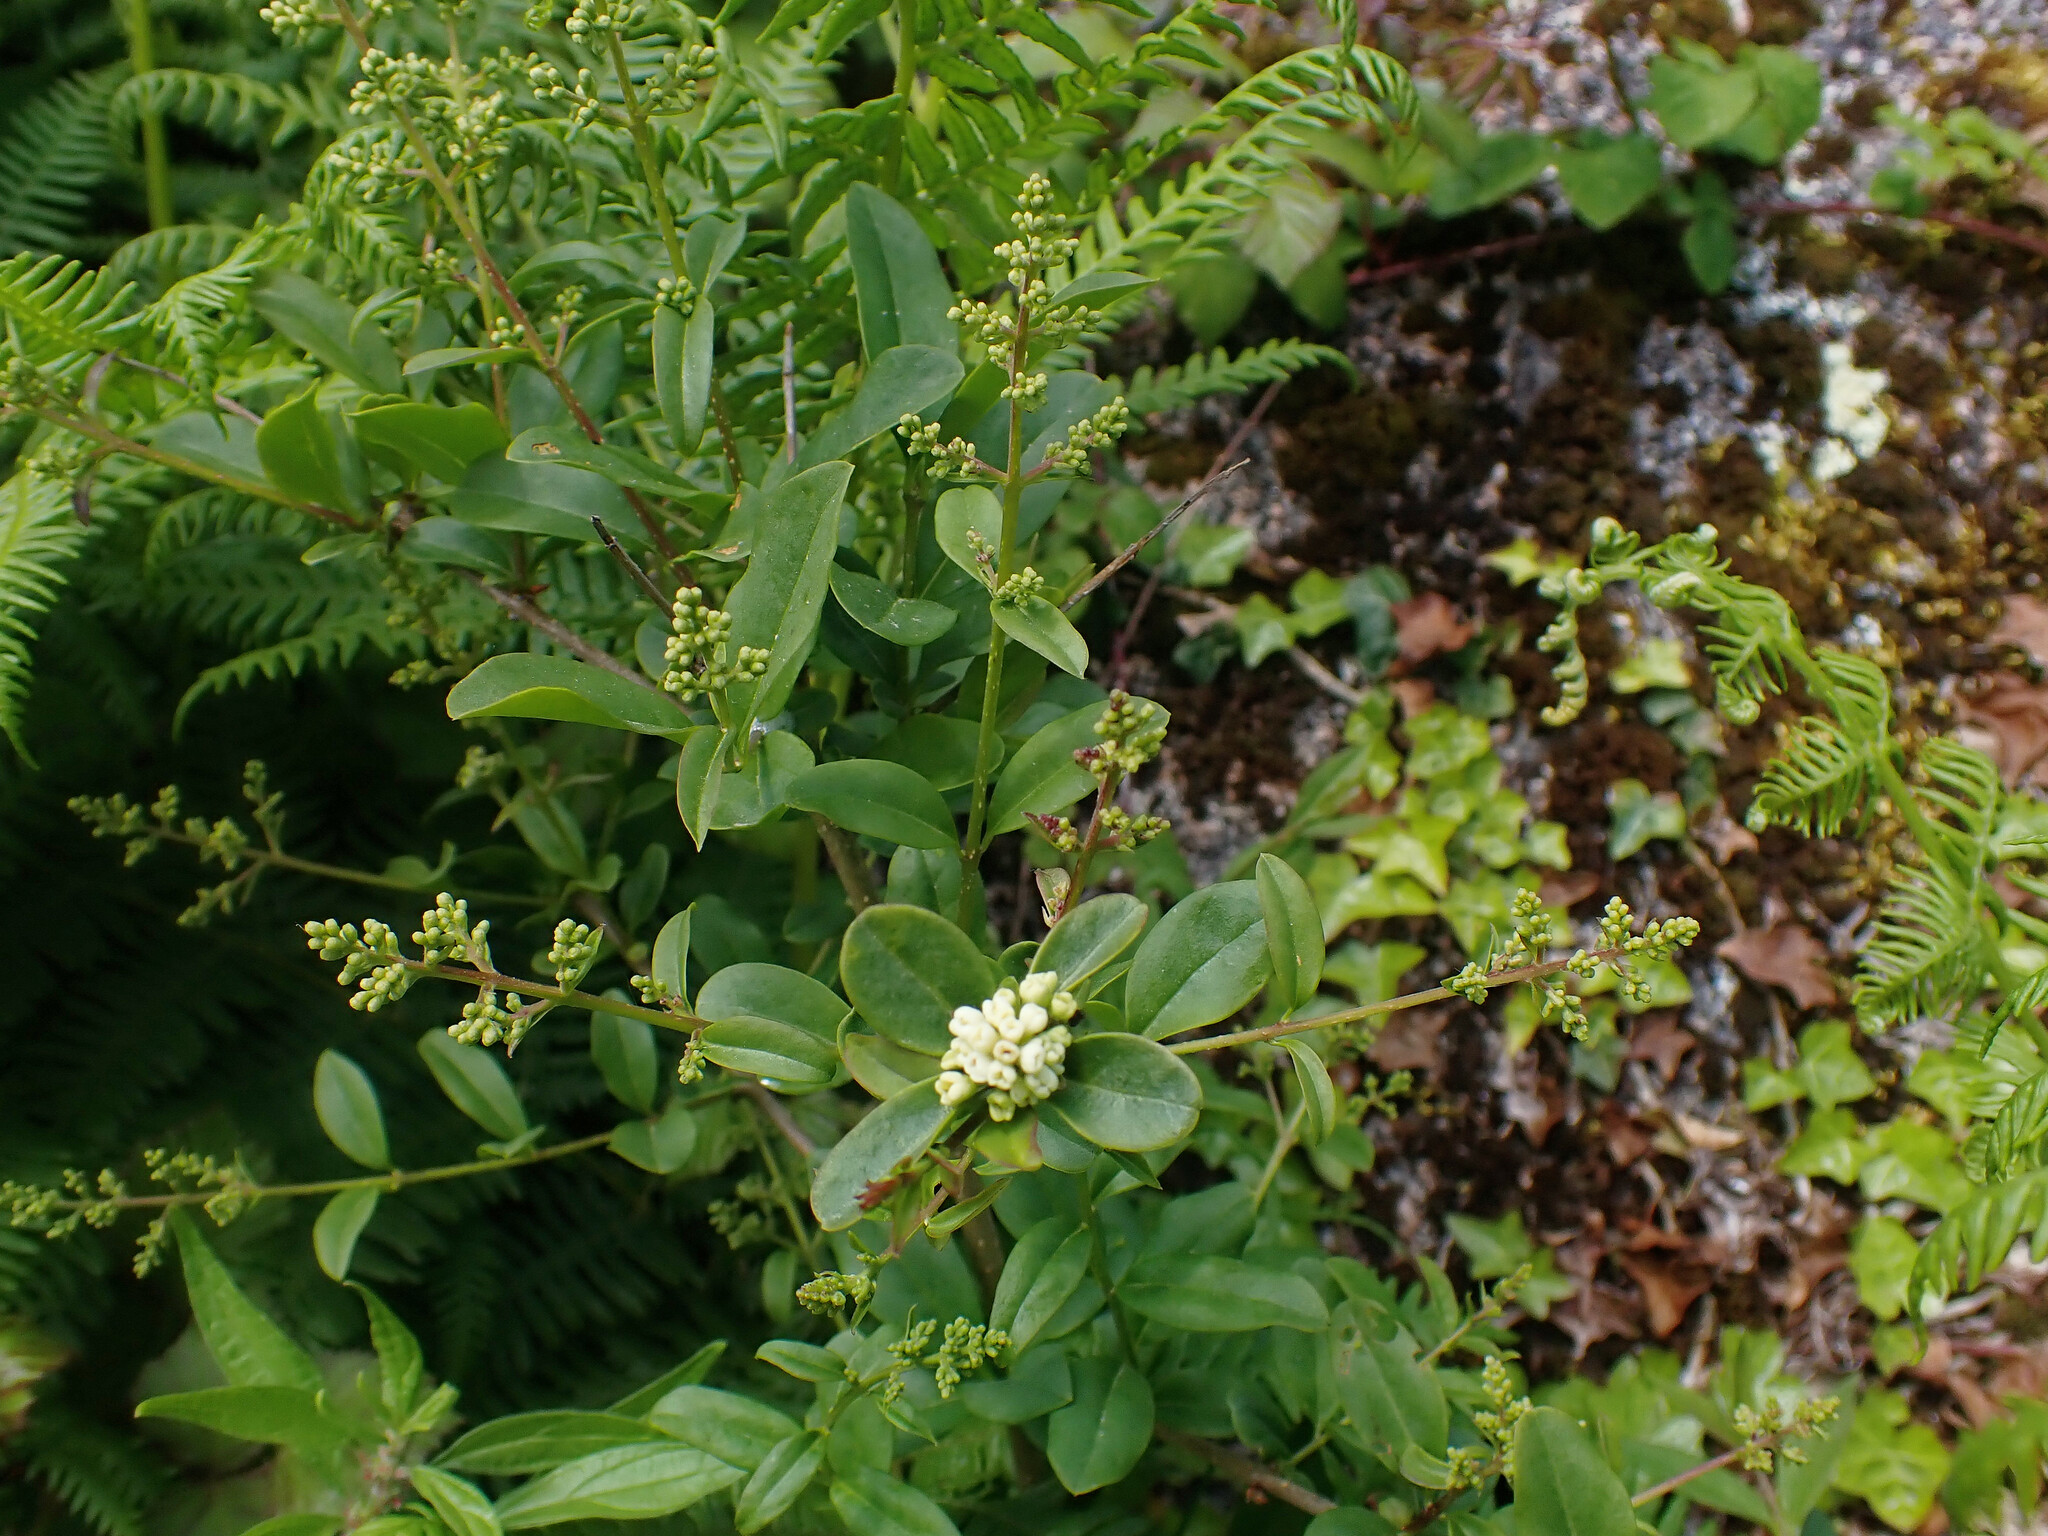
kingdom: Plantae
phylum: Tracheophyta
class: Magnoliopsida
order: Lamiales
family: Oleaceae
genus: Ligustrum
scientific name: Ligustrum vulgare
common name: Wild privet
